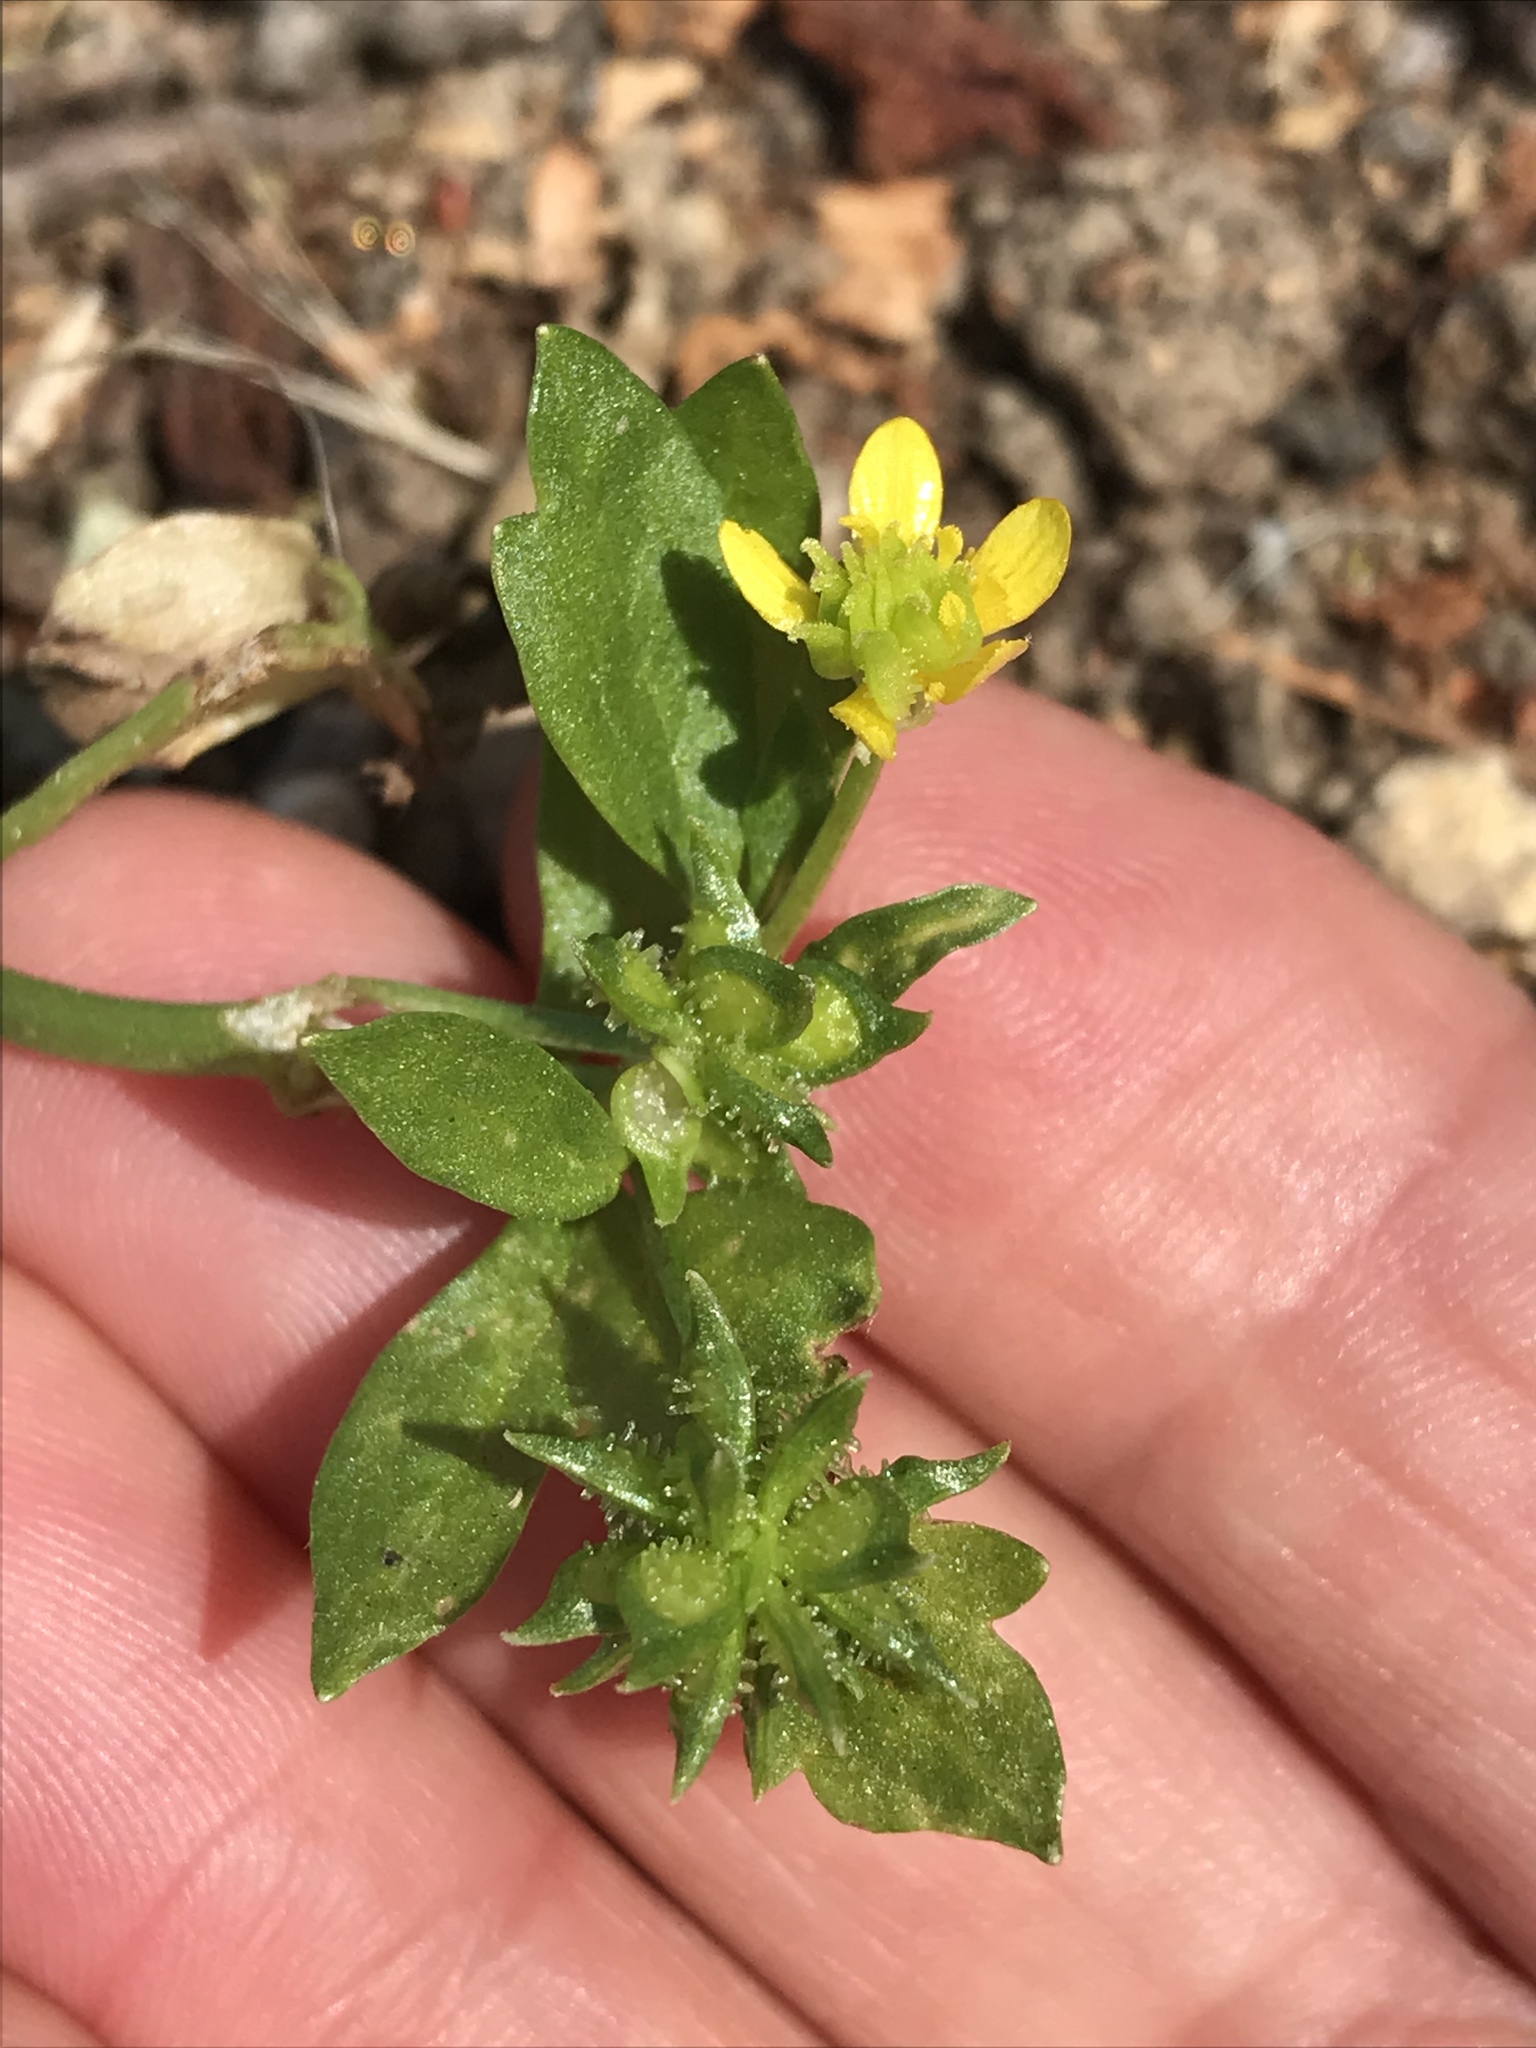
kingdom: Plantae
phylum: Tracheophyta
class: Magnoliopsida
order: Ranunculales
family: Ranunculaceae
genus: Ranunculus
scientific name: Ranunculus muricatus
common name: Rough-fruited buttercup
